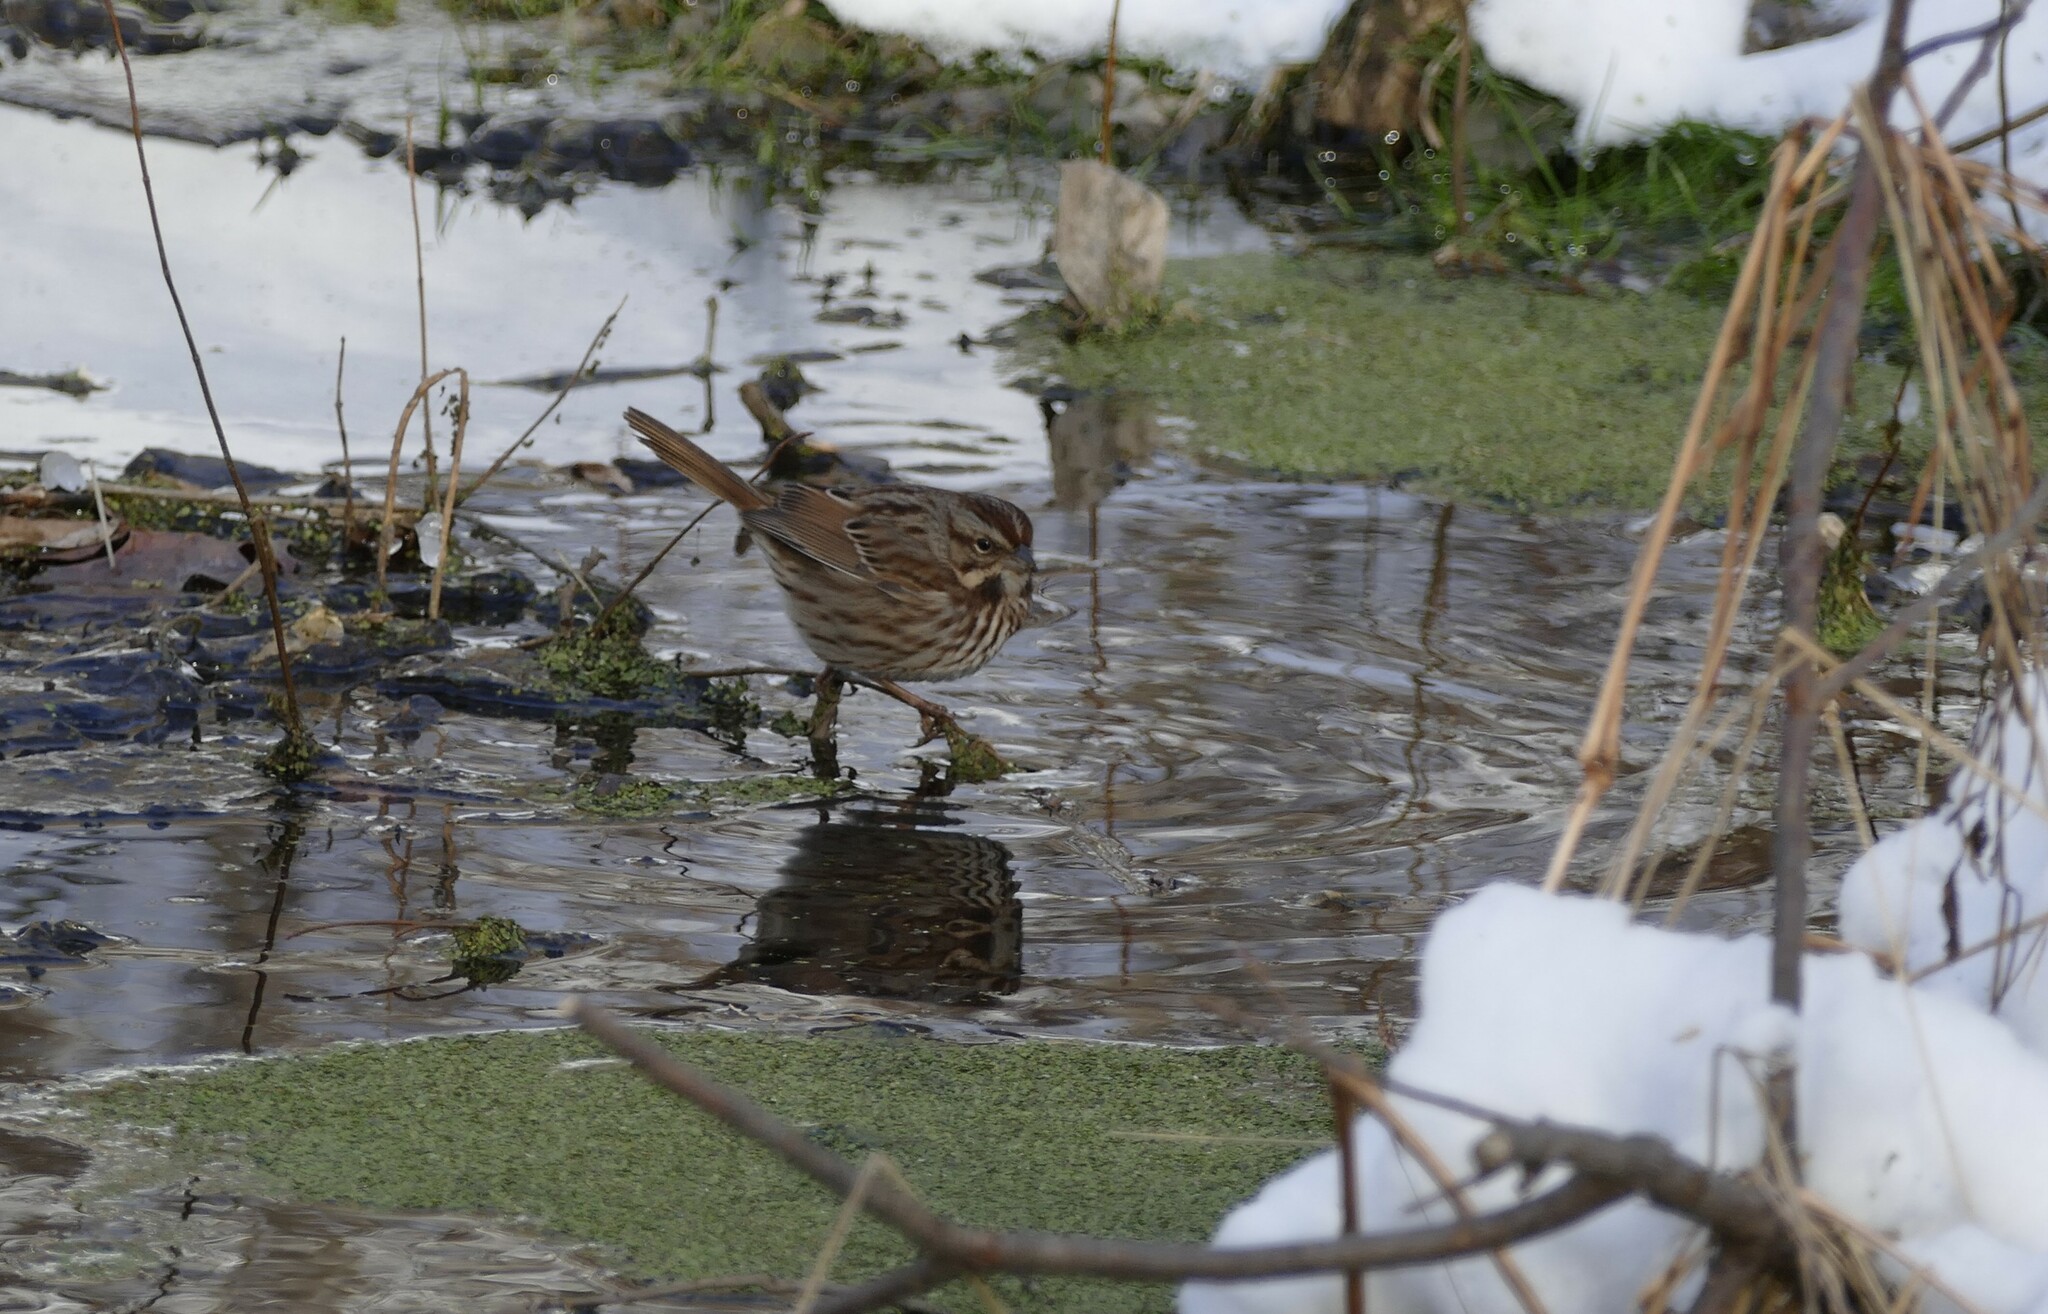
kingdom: Animalia
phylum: Chordata
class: Aves
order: Passeriformes
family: Passerellidae
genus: Melospiza
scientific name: Melospiza melodia
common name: Song sparrow
